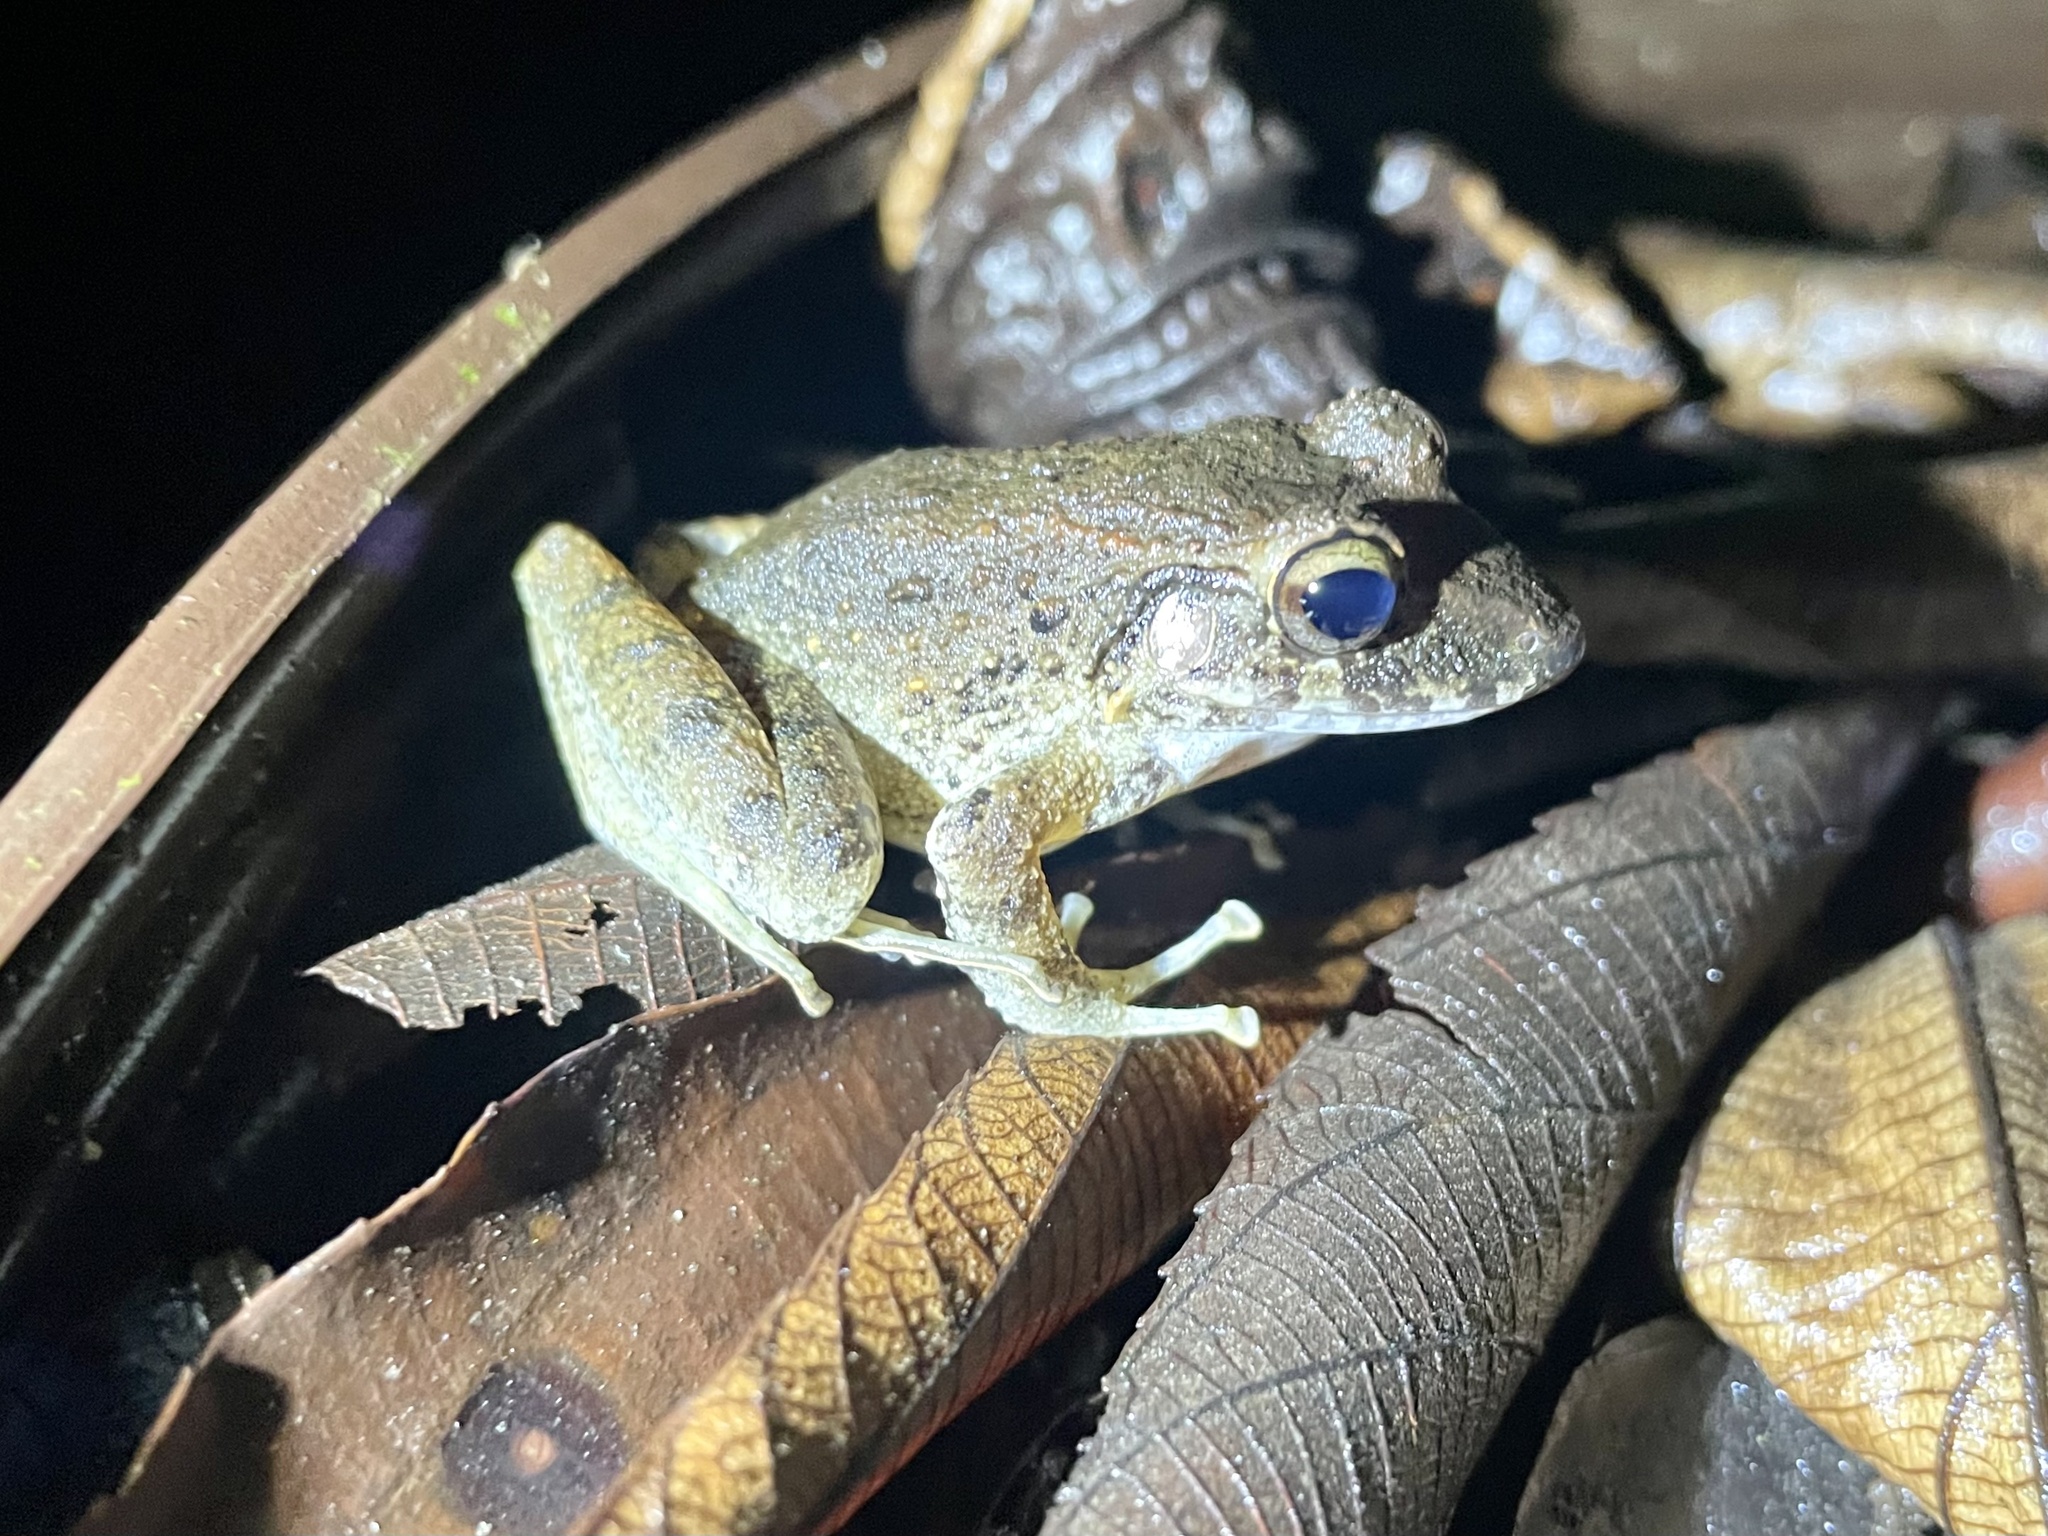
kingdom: Animalia
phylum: Chordata
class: Amphibia
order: Anura
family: Craugastoridae
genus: Craugastor
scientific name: Craugastor fitzingeri
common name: Fitzinger's robber frog
